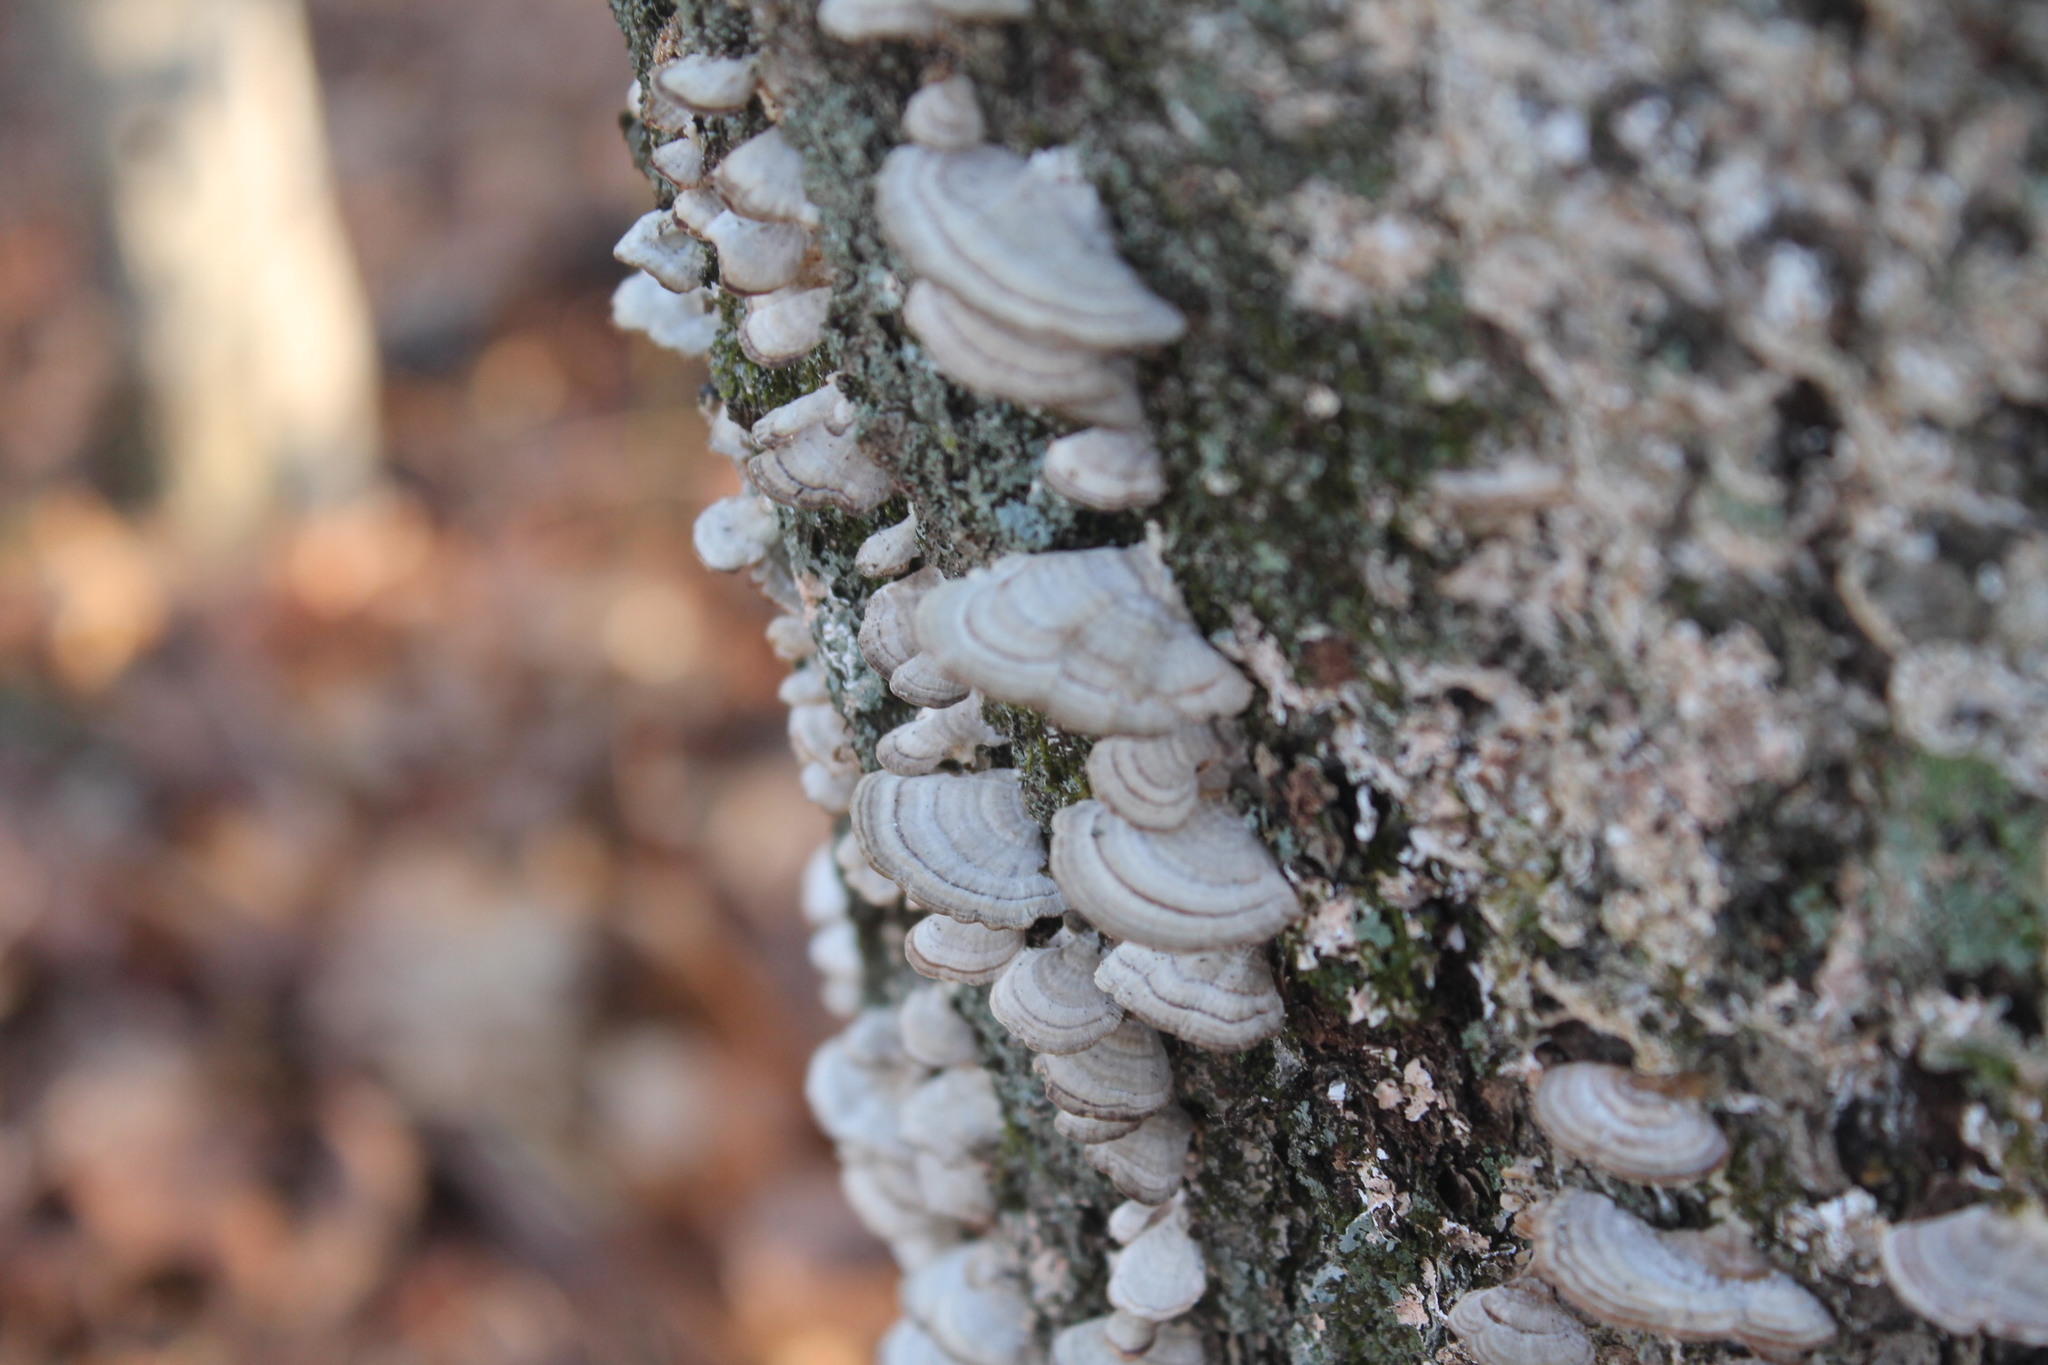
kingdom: Fungi
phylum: Basidiomycota
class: Agaricomycetes
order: Hymenochaetales
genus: Trichaptum
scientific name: Trichaptum biforme
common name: Violet-toothed polypore
